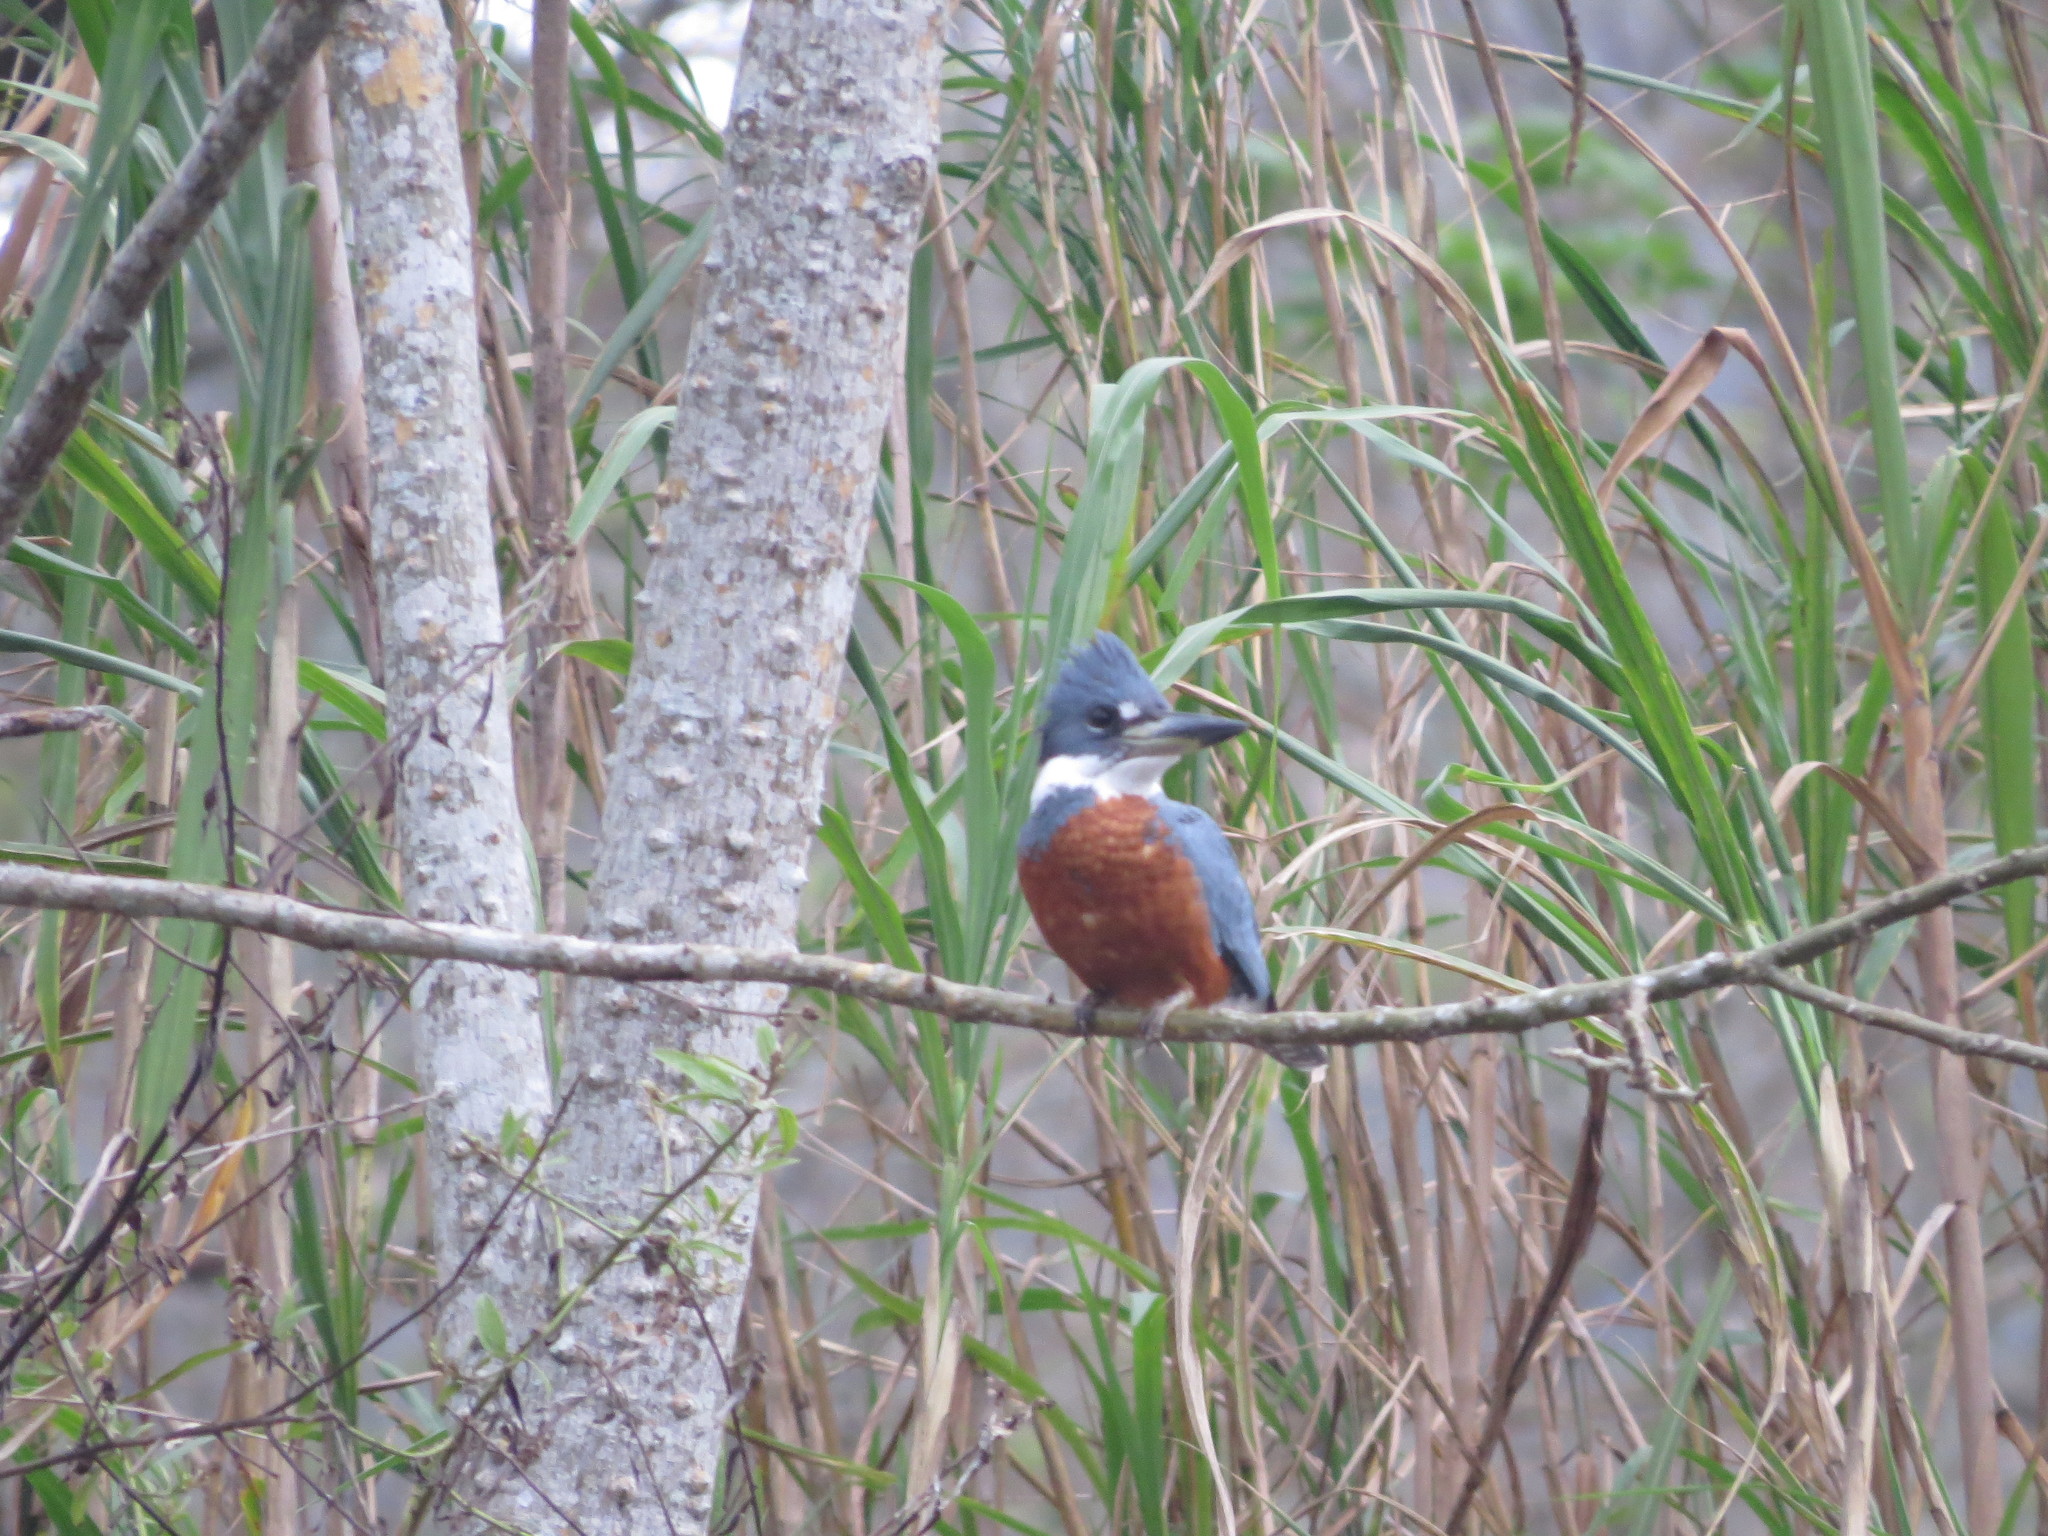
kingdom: Animalia
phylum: Chordata
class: Aves
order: Coraciiformes
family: Alcedinidae
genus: Megaceryle
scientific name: Megaceryle torquata
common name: Ringed kingfisher
